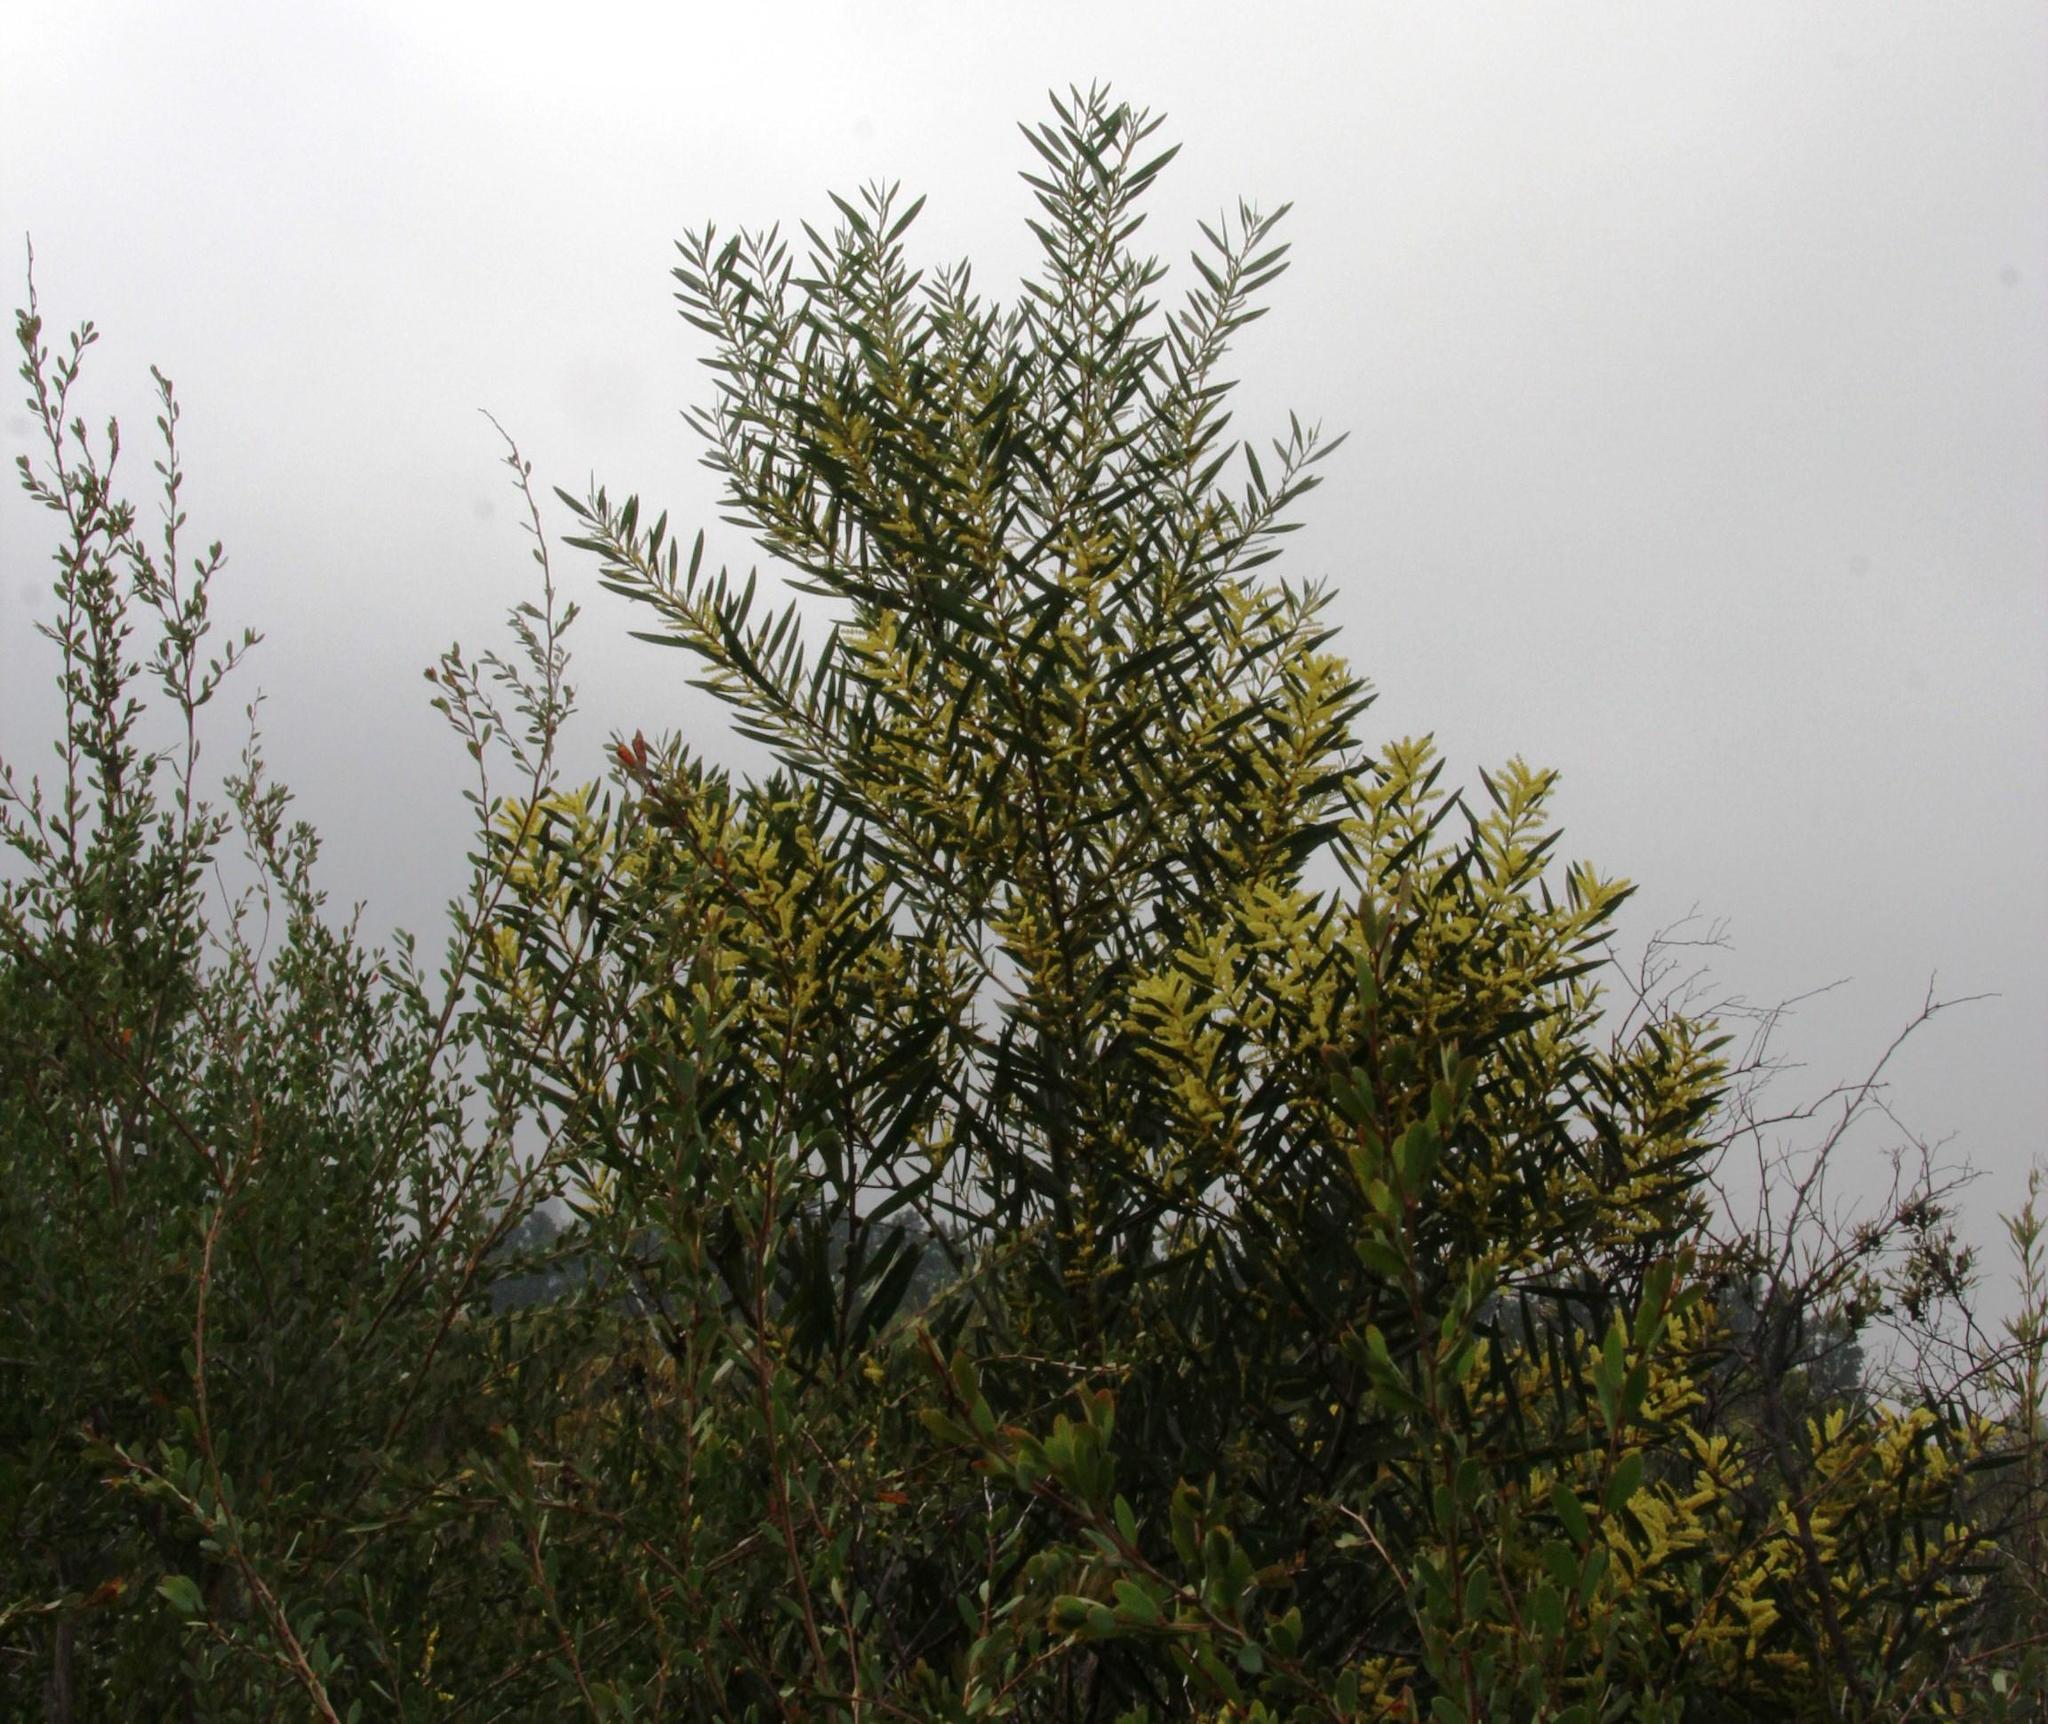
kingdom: Plantae
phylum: Tracheophyta
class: Magnoliopsida
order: Fabales
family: Fabaceae
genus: Acacia
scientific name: Acacia longifolia
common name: Sydney golden wattle
